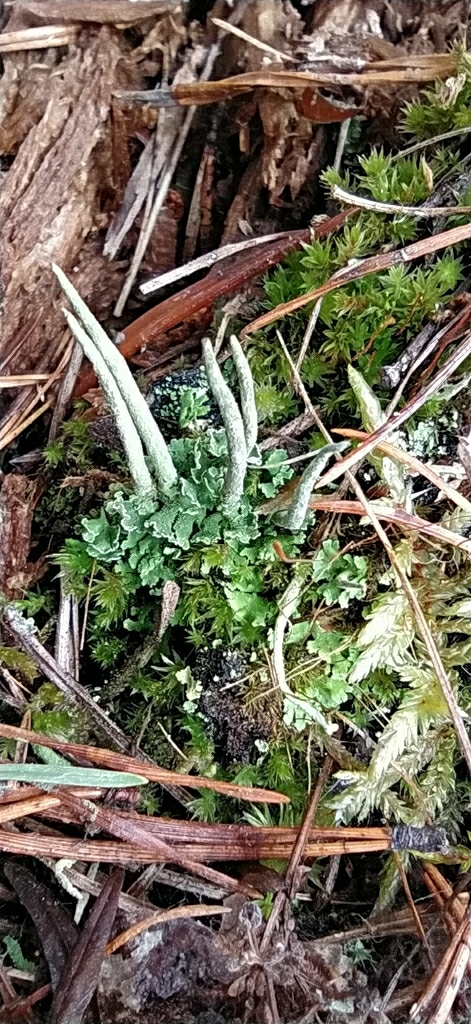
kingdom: Fungi
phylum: Ascomycota
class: Lecanoromycetes
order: Lecanorales
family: Cladoniaceae
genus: Cladonia
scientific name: Cladonia coniocraea
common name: Common powderhorn
